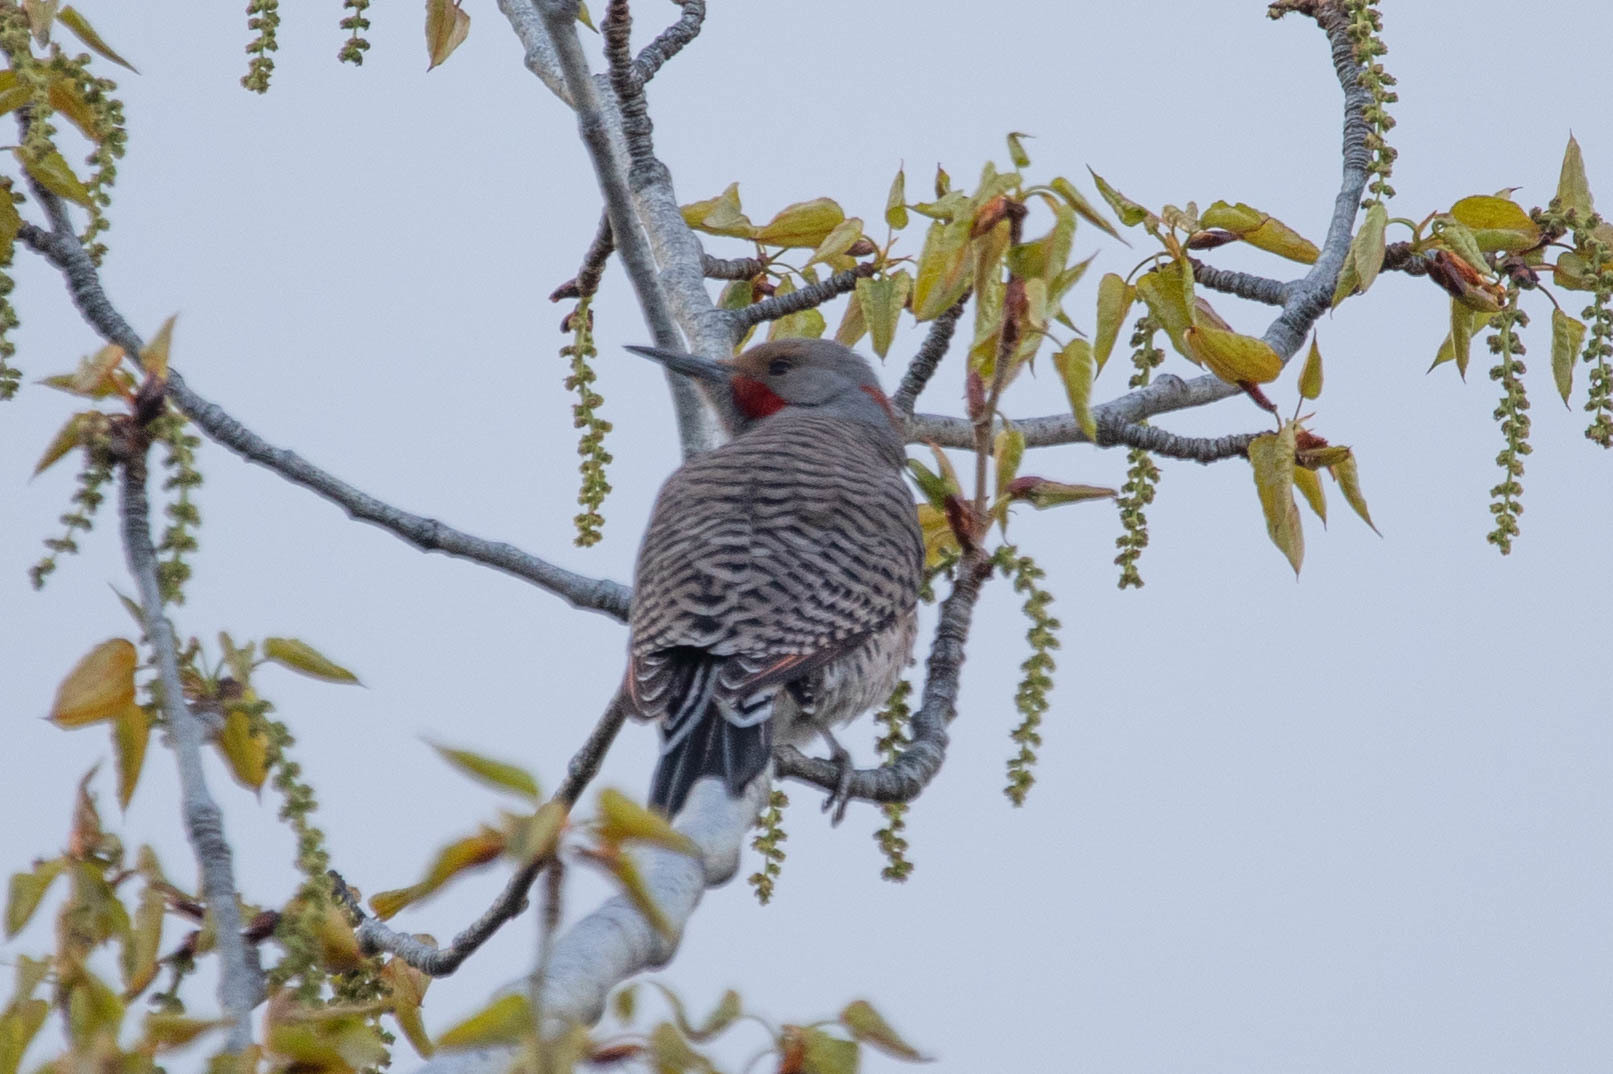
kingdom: Animalia
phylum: Chordata
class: Aves
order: Piciformes
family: Picidae
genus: Colaptes
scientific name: Colaptes
